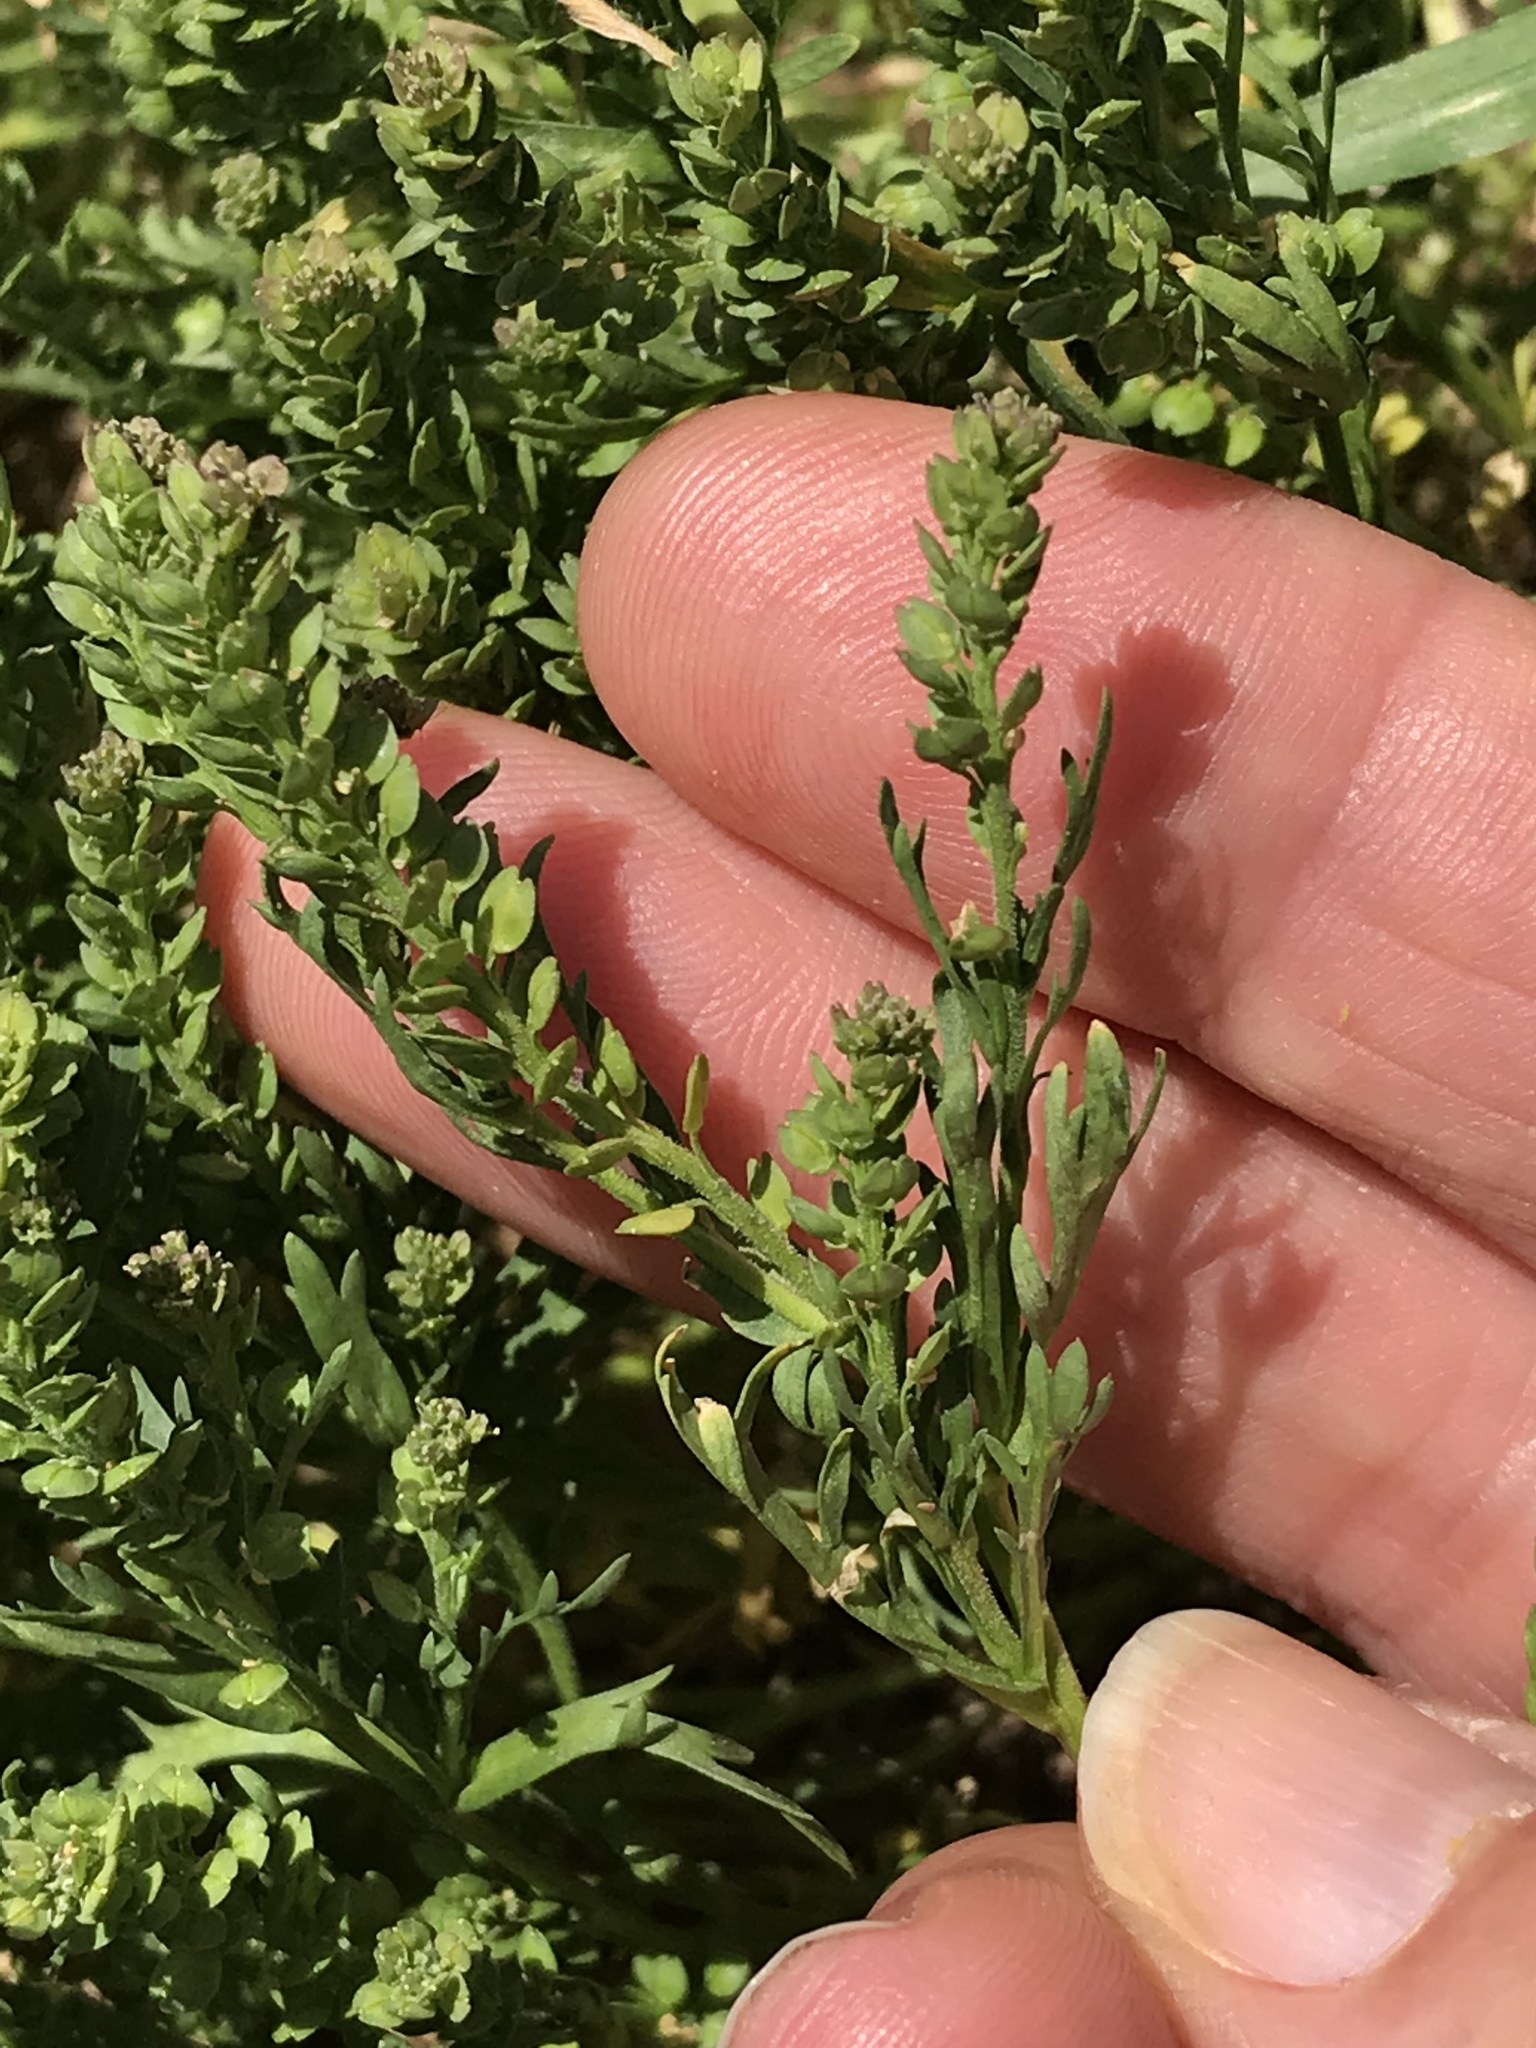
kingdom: Plantae
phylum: Tracheophyta
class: Magnoliopsida
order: Brassicales
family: Brassicaceae
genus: Lepidium
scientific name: Lepidium didymum
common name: Lesser swinecress
